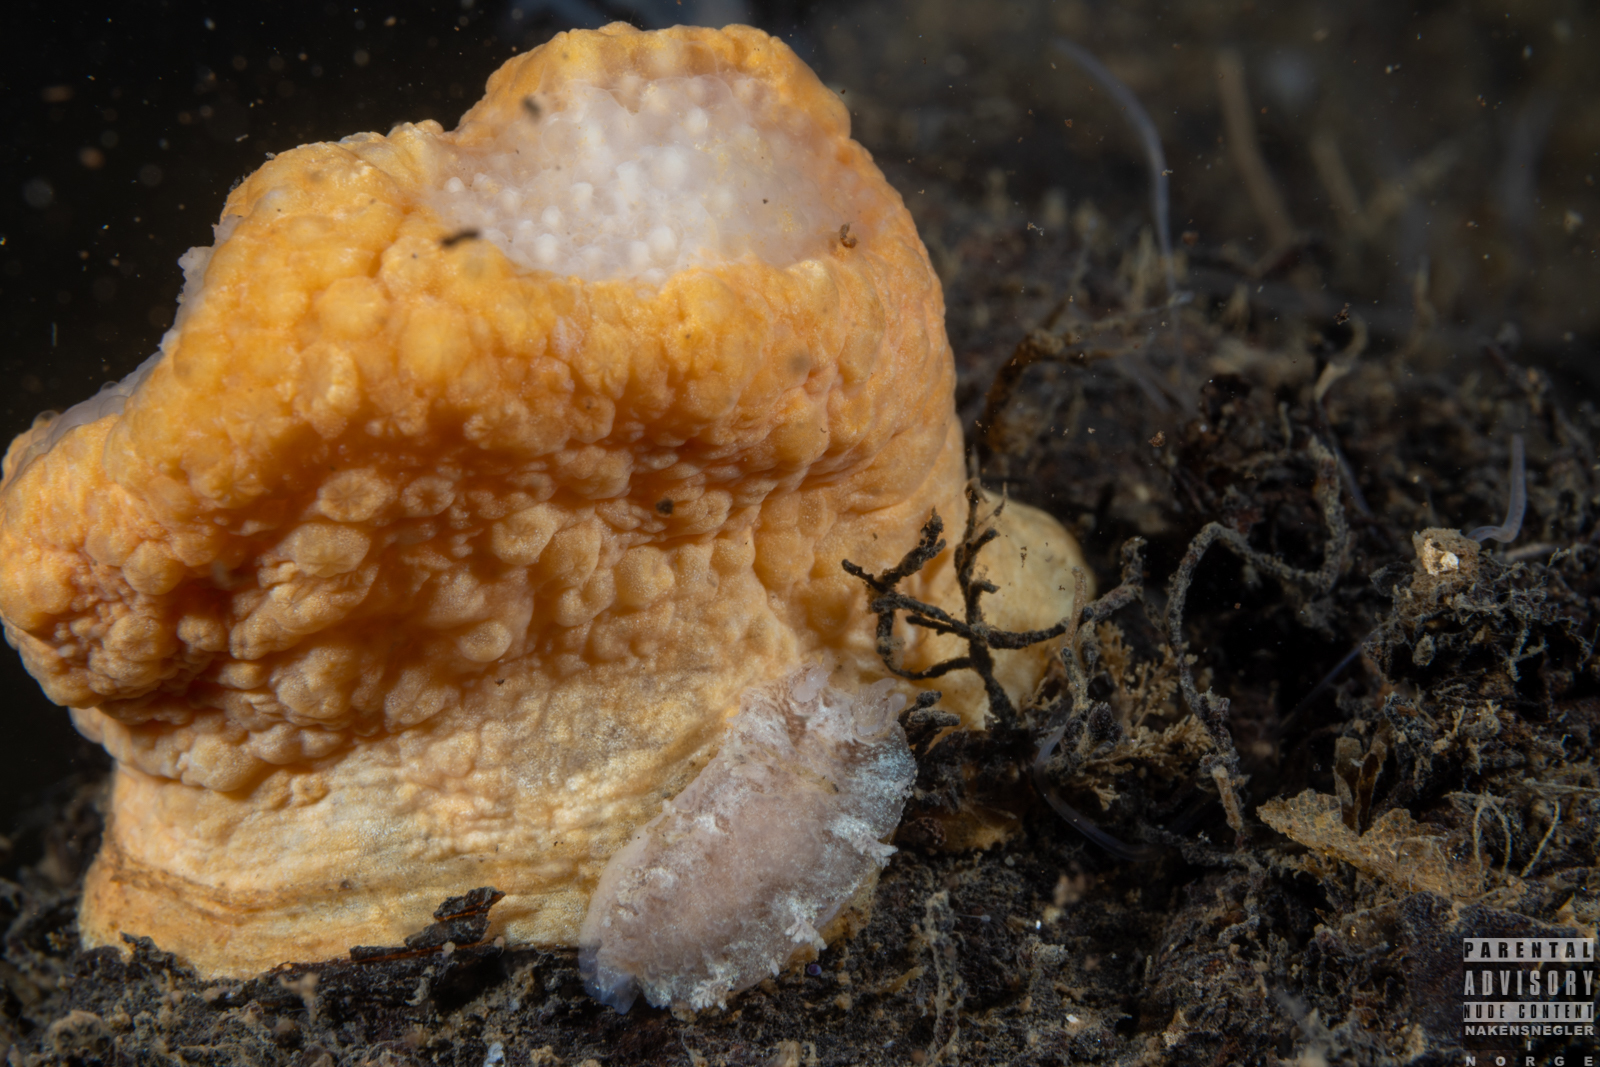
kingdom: Animalia
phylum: Mollusca
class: Gastropoda
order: Nudibranchia
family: Tritoniidae
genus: Duvaucelia
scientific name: Duvaucelia plebeia
